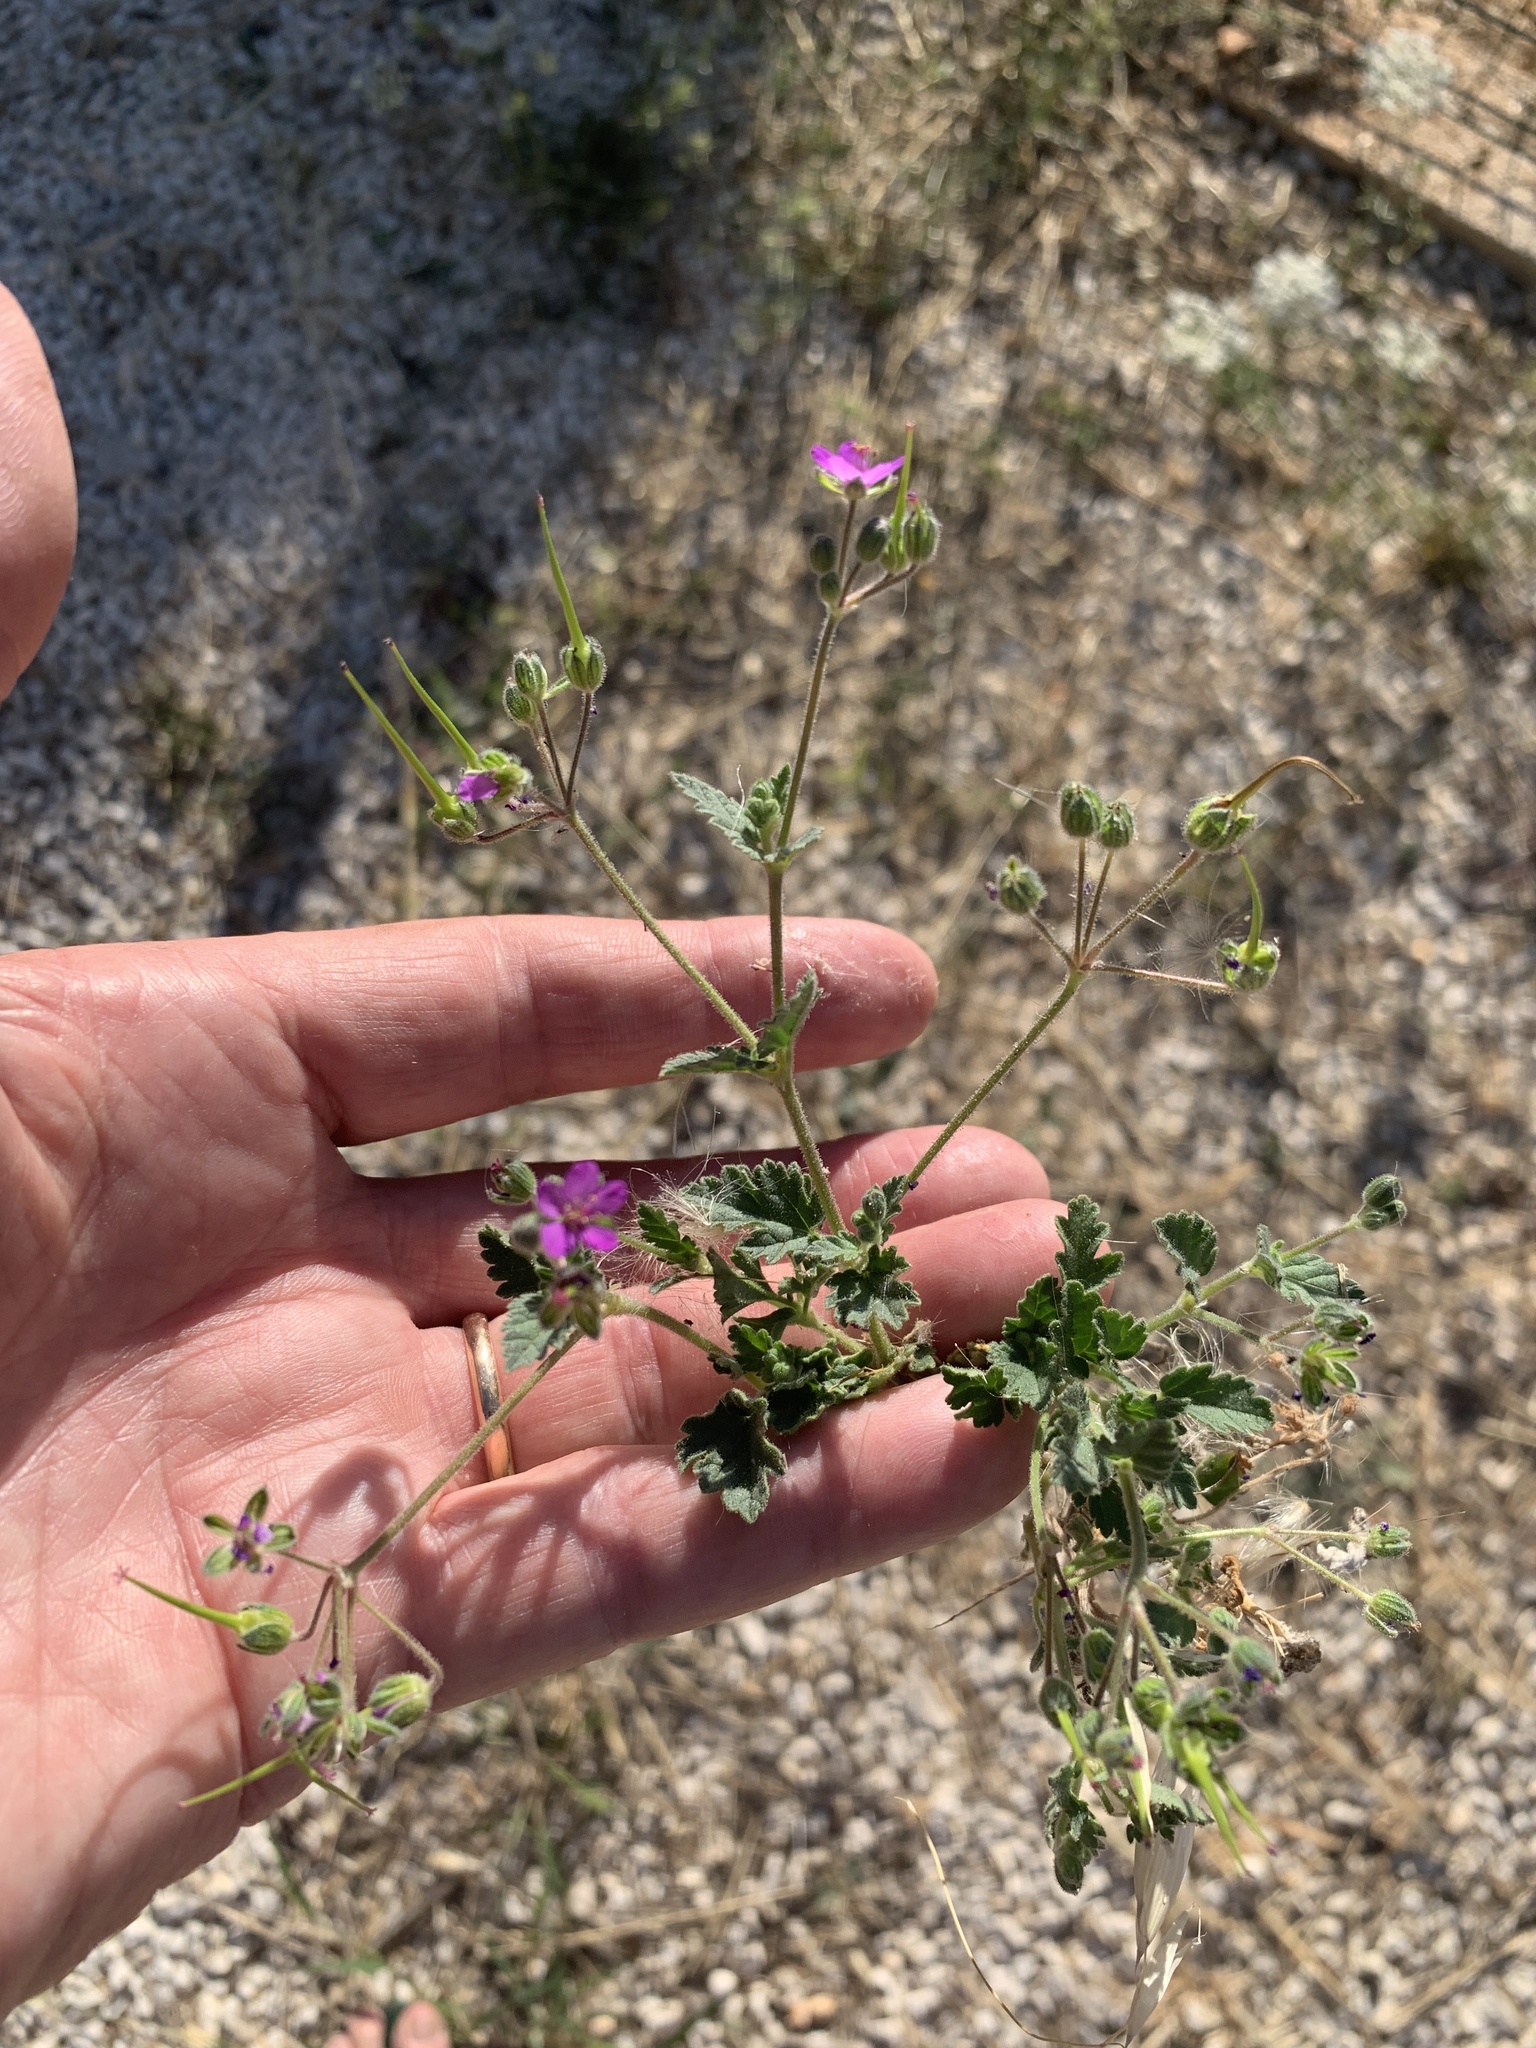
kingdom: Plantae
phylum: Tracheophyta
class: Magnoliopsida
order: Geraniales
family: Geraniaceae
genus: Erodium
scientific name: Erodium malacoides
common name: Soft stork's-bill
